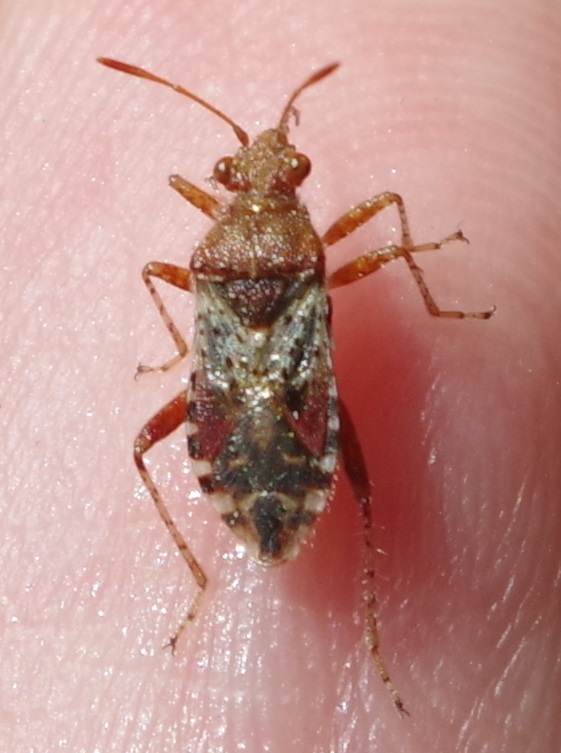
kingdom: Animalia
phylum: Arthropoda
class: Insecta
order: Hemiptera
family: Rhopalidae
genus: Rhopalus
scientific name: Rhopalus subrufus
